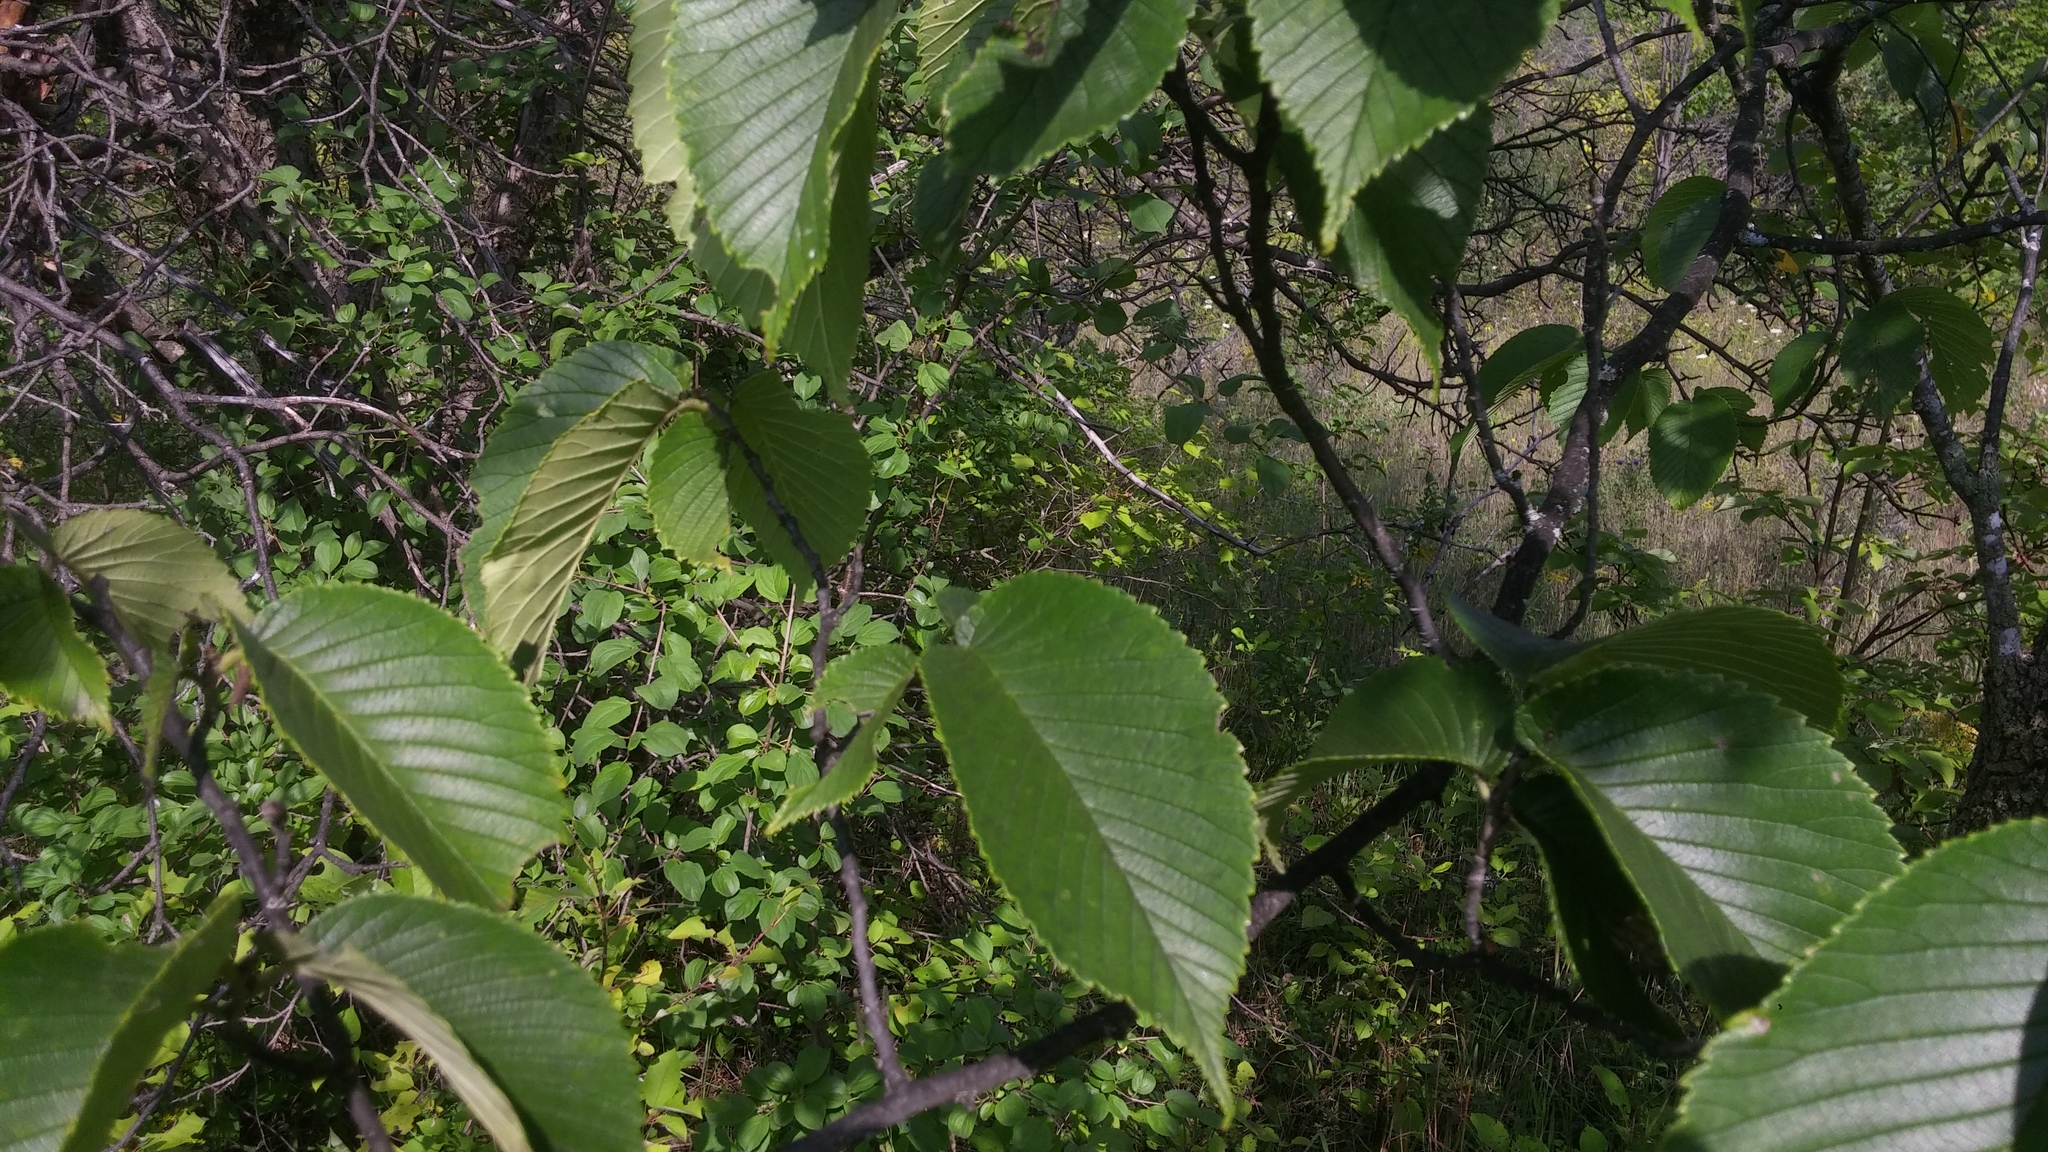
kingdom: Plantae
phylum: Tracheophyta
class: Magnoliopsida
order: Rosales
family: Ulmaceae
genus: Ulmus
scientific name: Ulmus rubra
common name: Slippery elm
